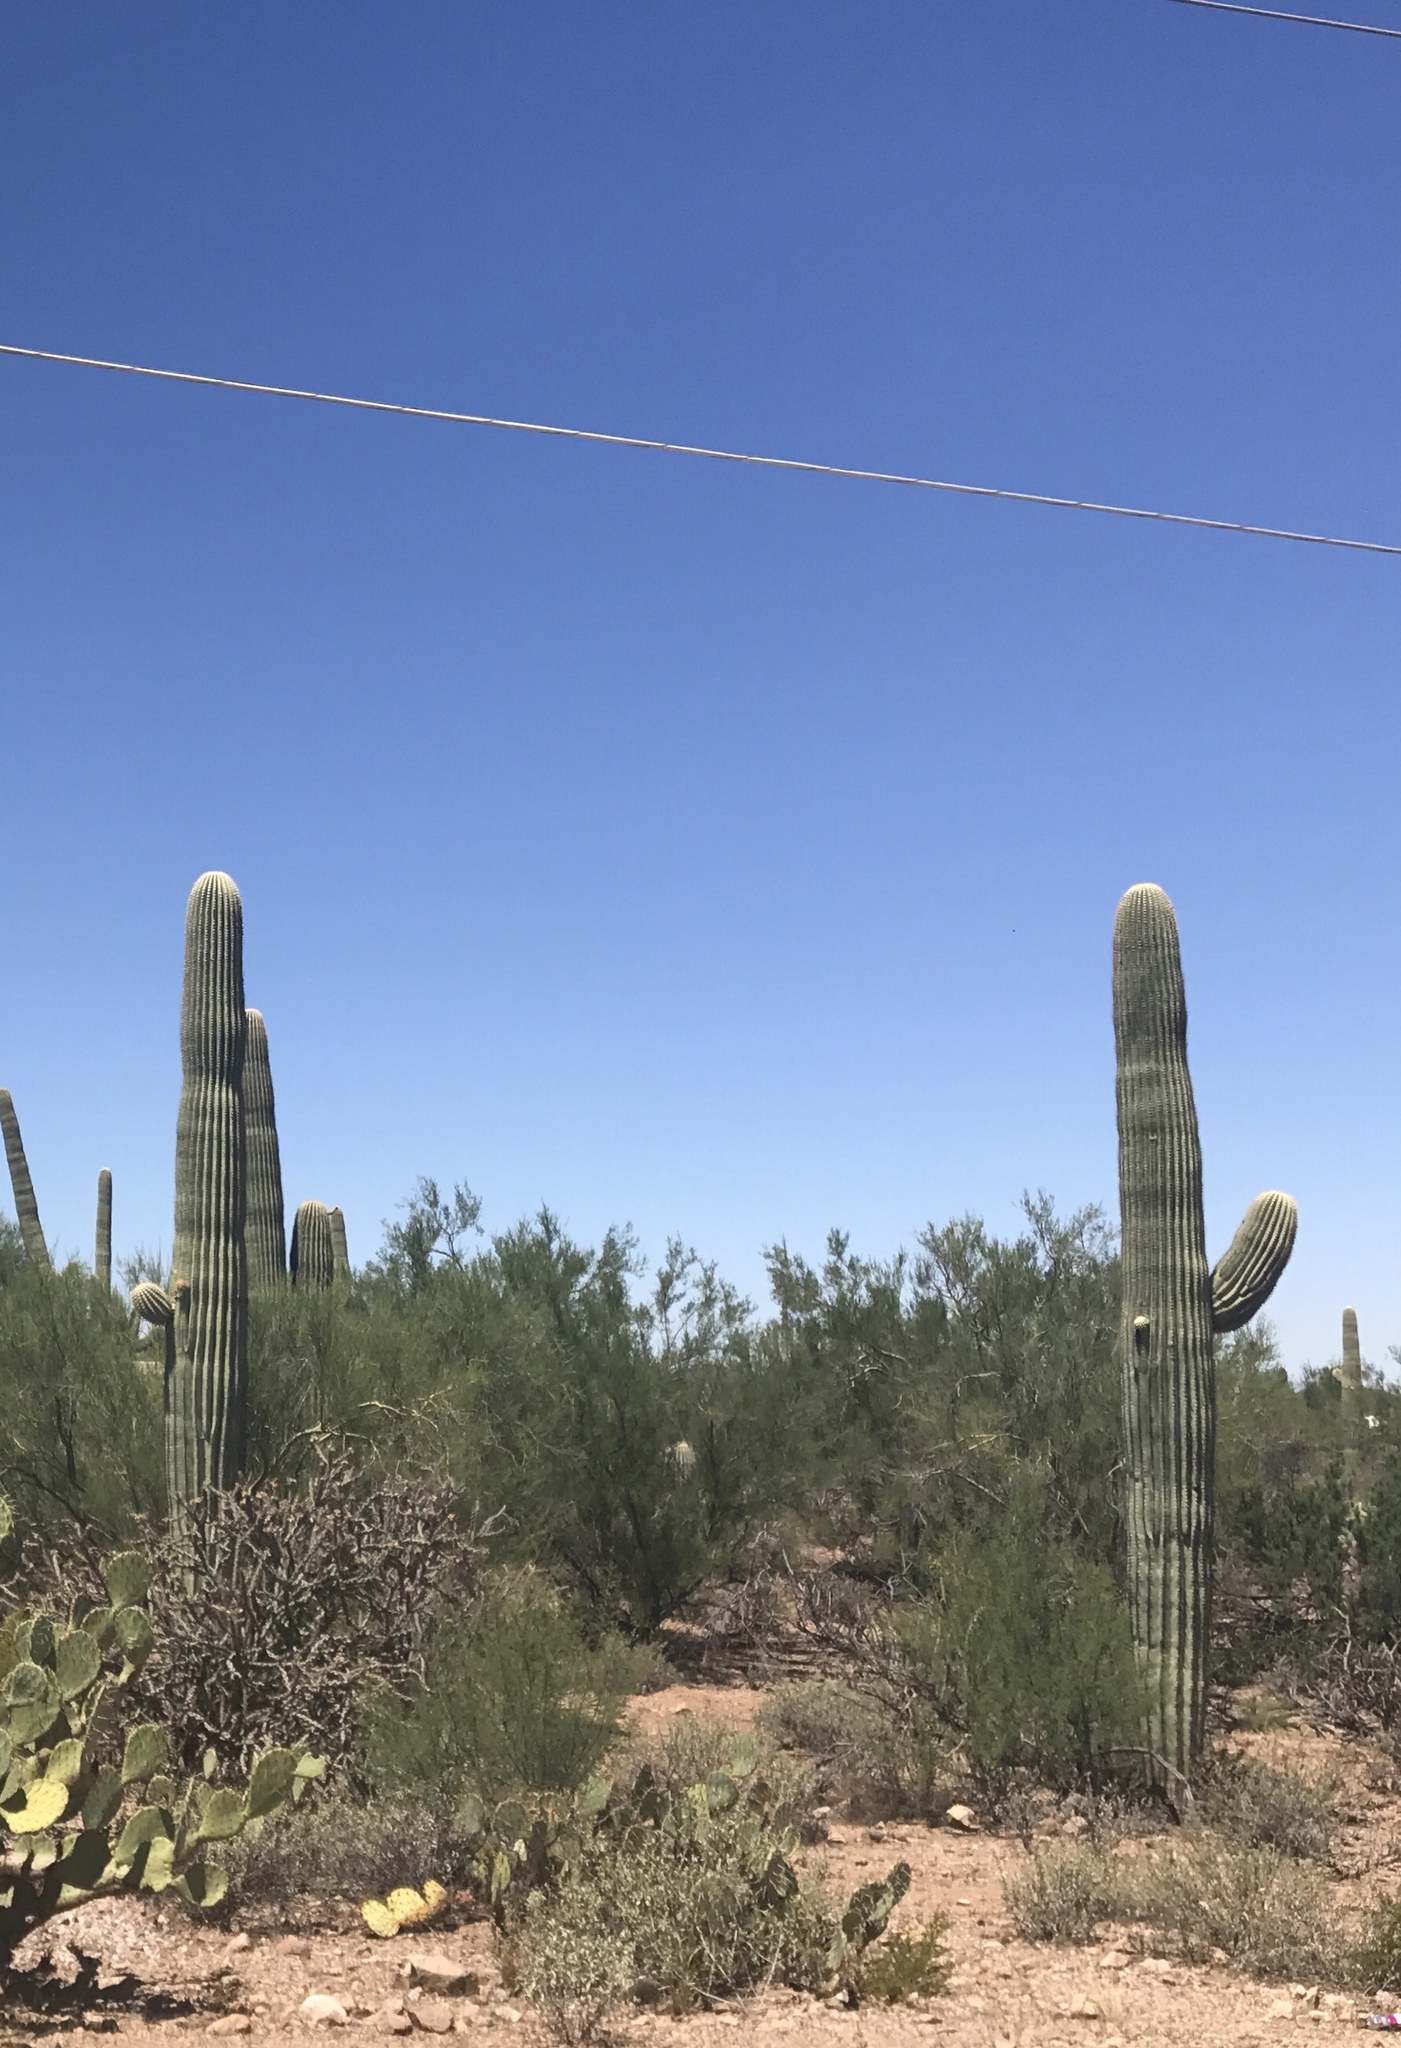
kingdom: Plantae
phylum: Tracheophyta
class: Magnoliopsida
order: Caryophyllales
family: Cactaceae
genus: Carnegiea
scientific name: Carnegiea gigantea
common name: Saguaro
